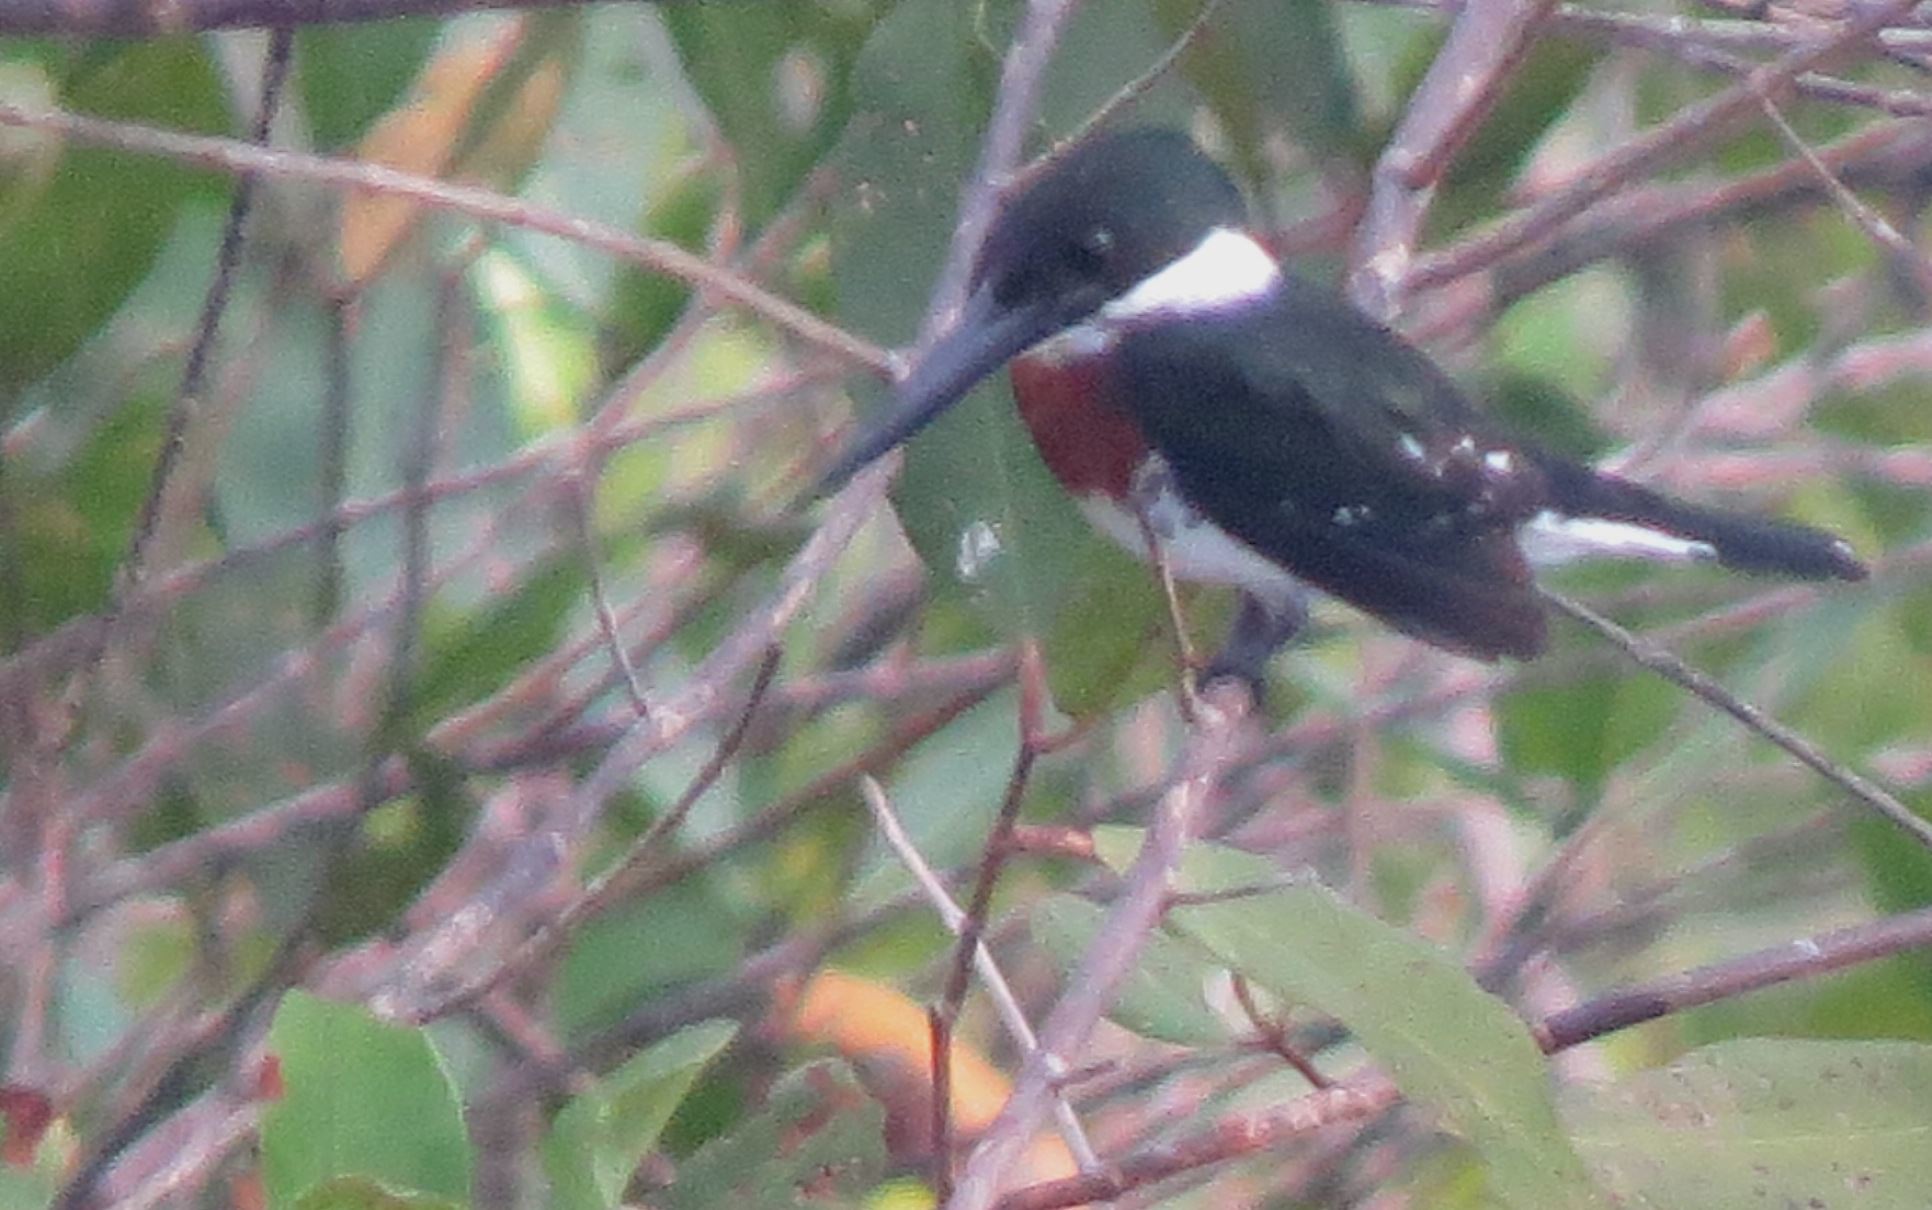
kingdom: Animalia
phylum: Chordata
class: Aves
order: Coraciiformes
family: Alcedinidae
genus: Chloroceryle
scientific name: Chloroceryle americana
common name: Green kingfisher
